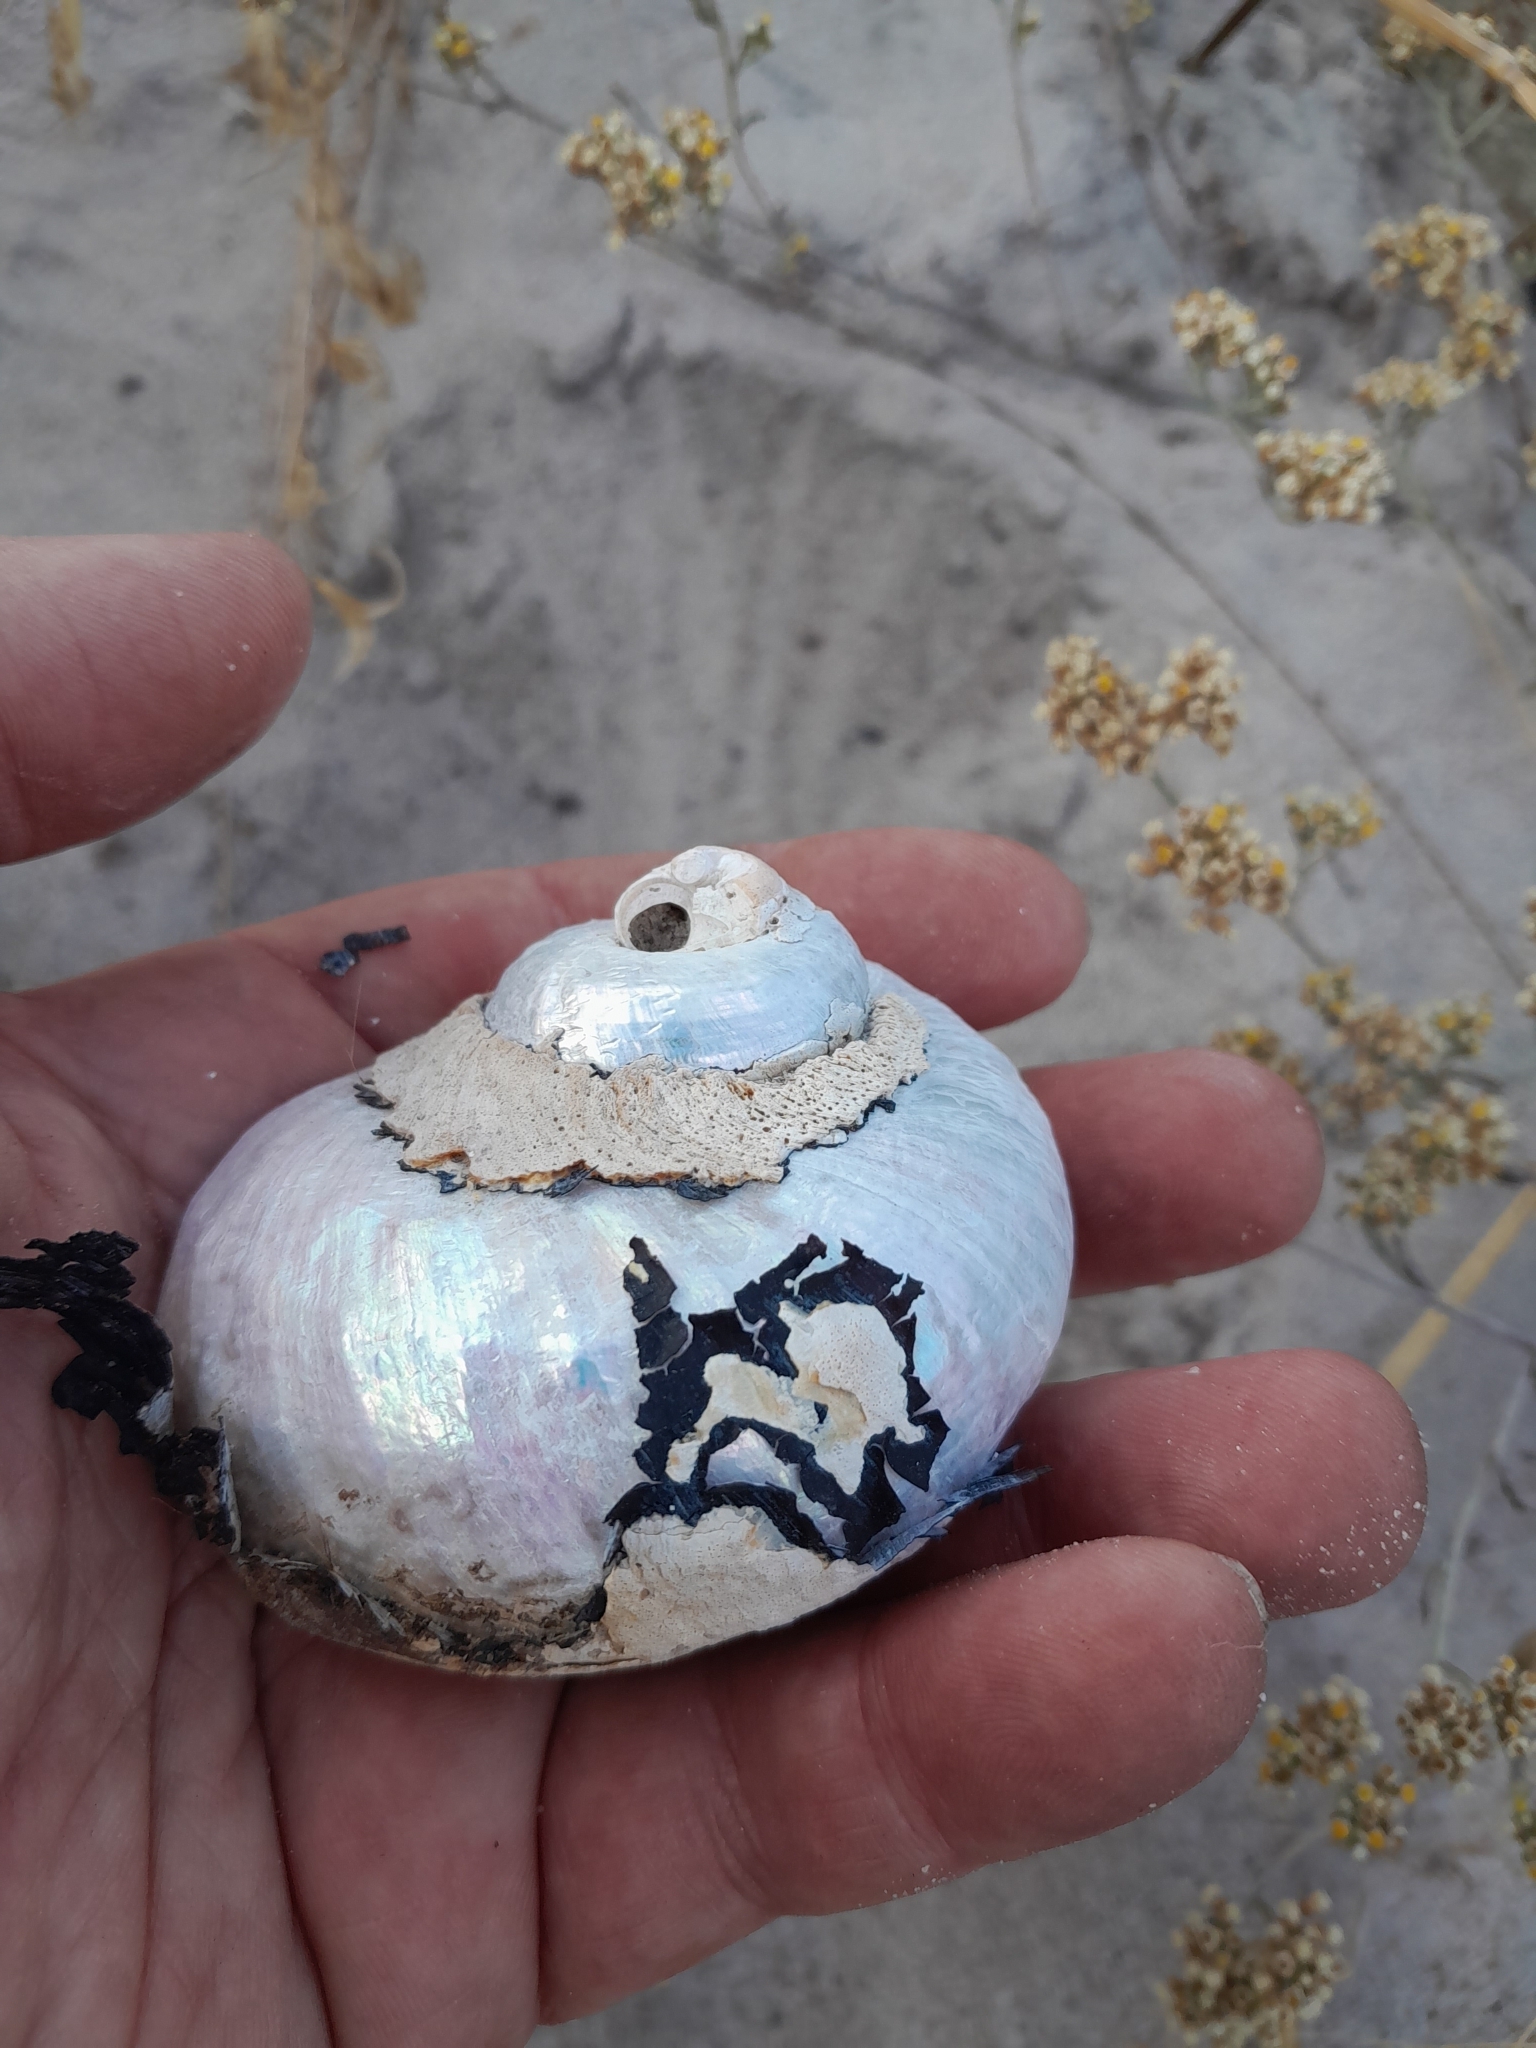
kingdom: Animalia
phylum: Mollusca
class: Gastropoda
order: Trochida
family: Turbinidae
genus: Turbo
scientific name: Turbo sarmaticus
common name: South african turban
